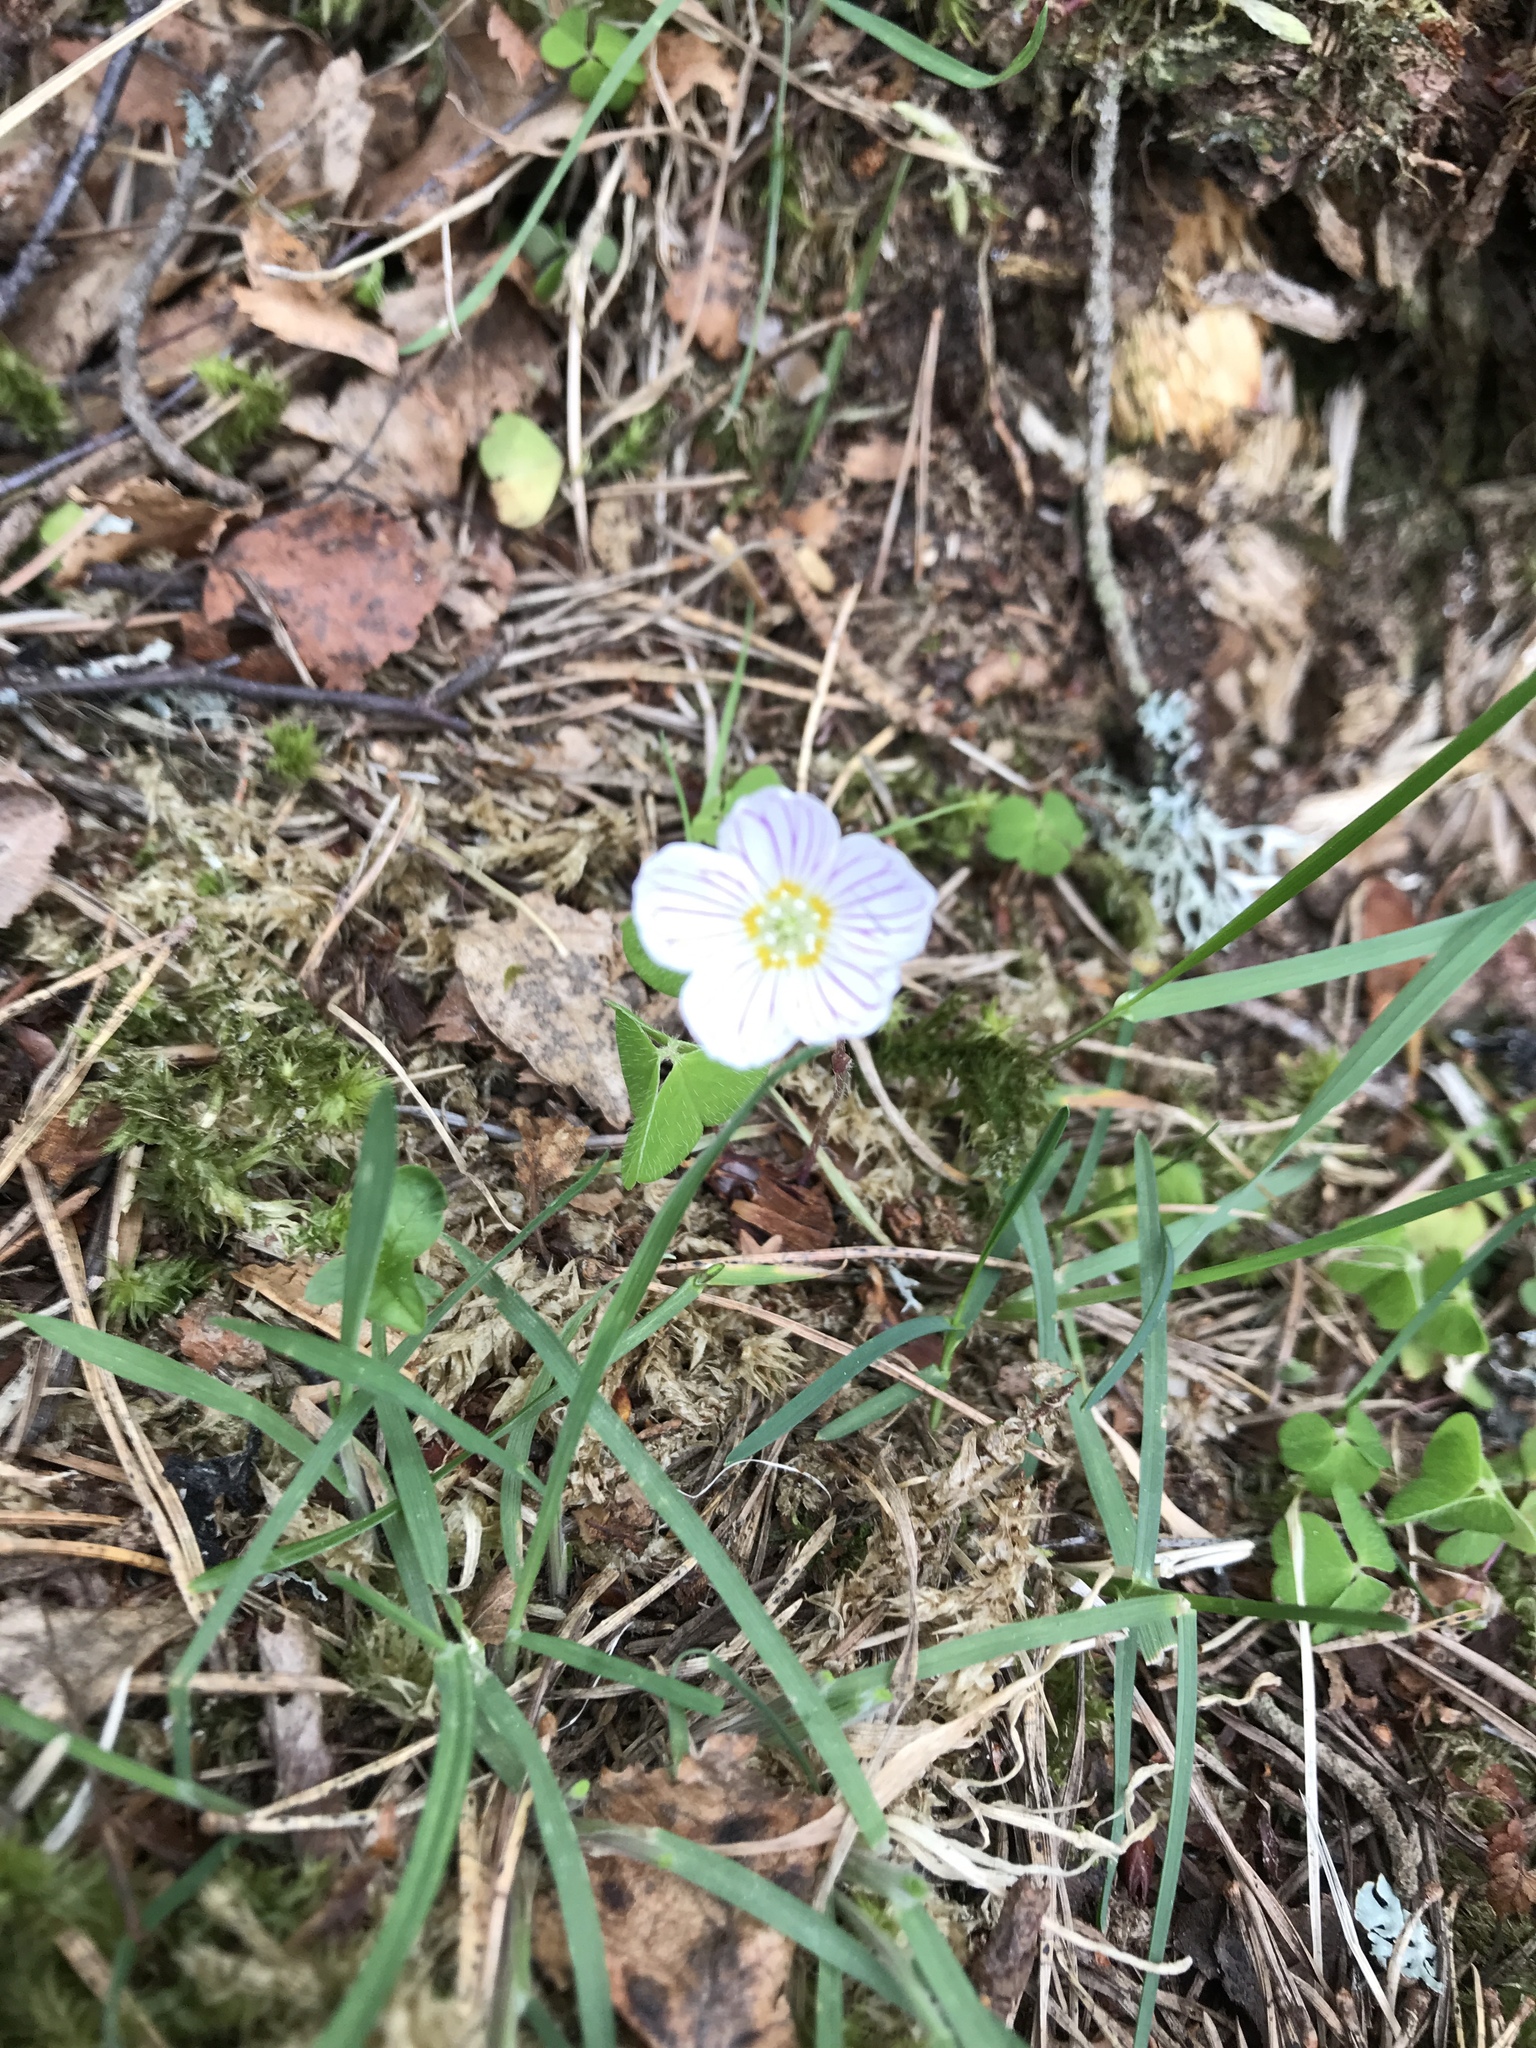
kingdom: Plantae
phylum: Tracheophyta
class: Magnoliopsida
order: Oxalidales
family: Oxalidaceae
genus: Oxalis
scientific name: Oxalis acetosella
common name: Wood-sorrel
